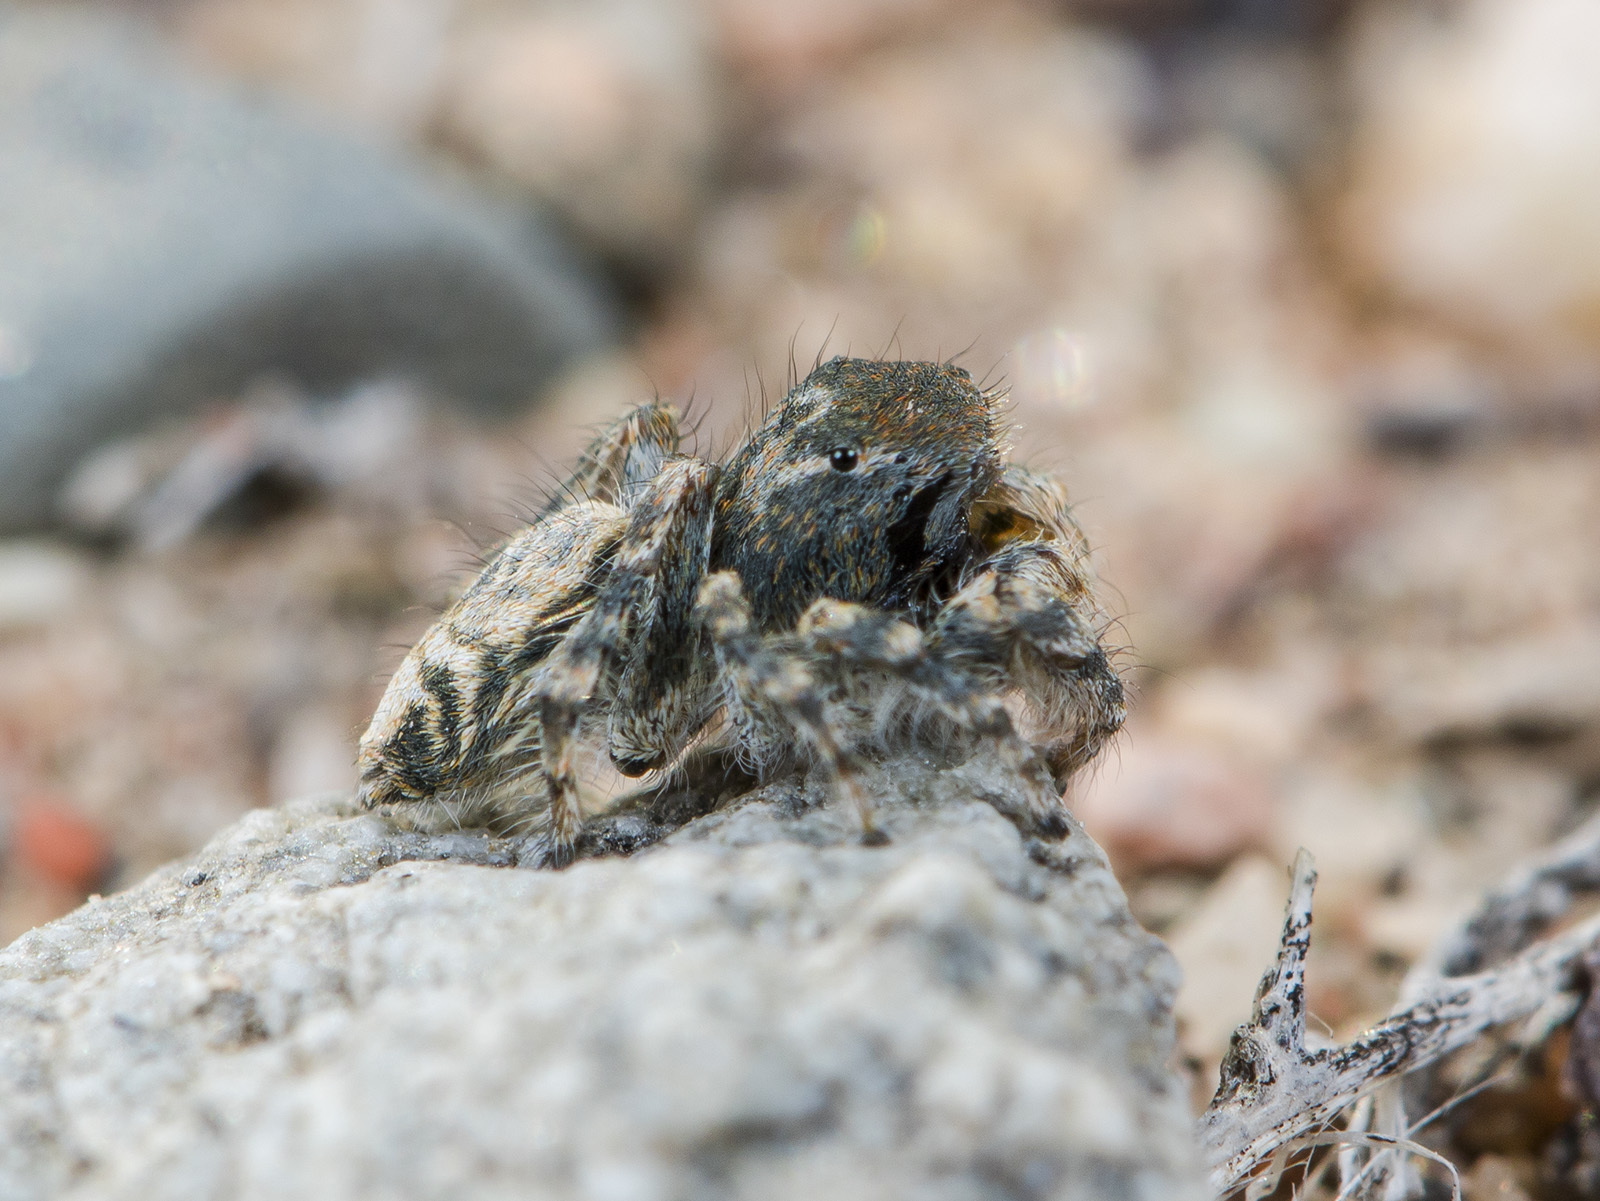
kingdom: Animalia
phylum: Arthropoda
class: Arachnida
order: Araneae
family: Salticidae
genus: Yllenus
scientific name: Yllenus zyuzini
